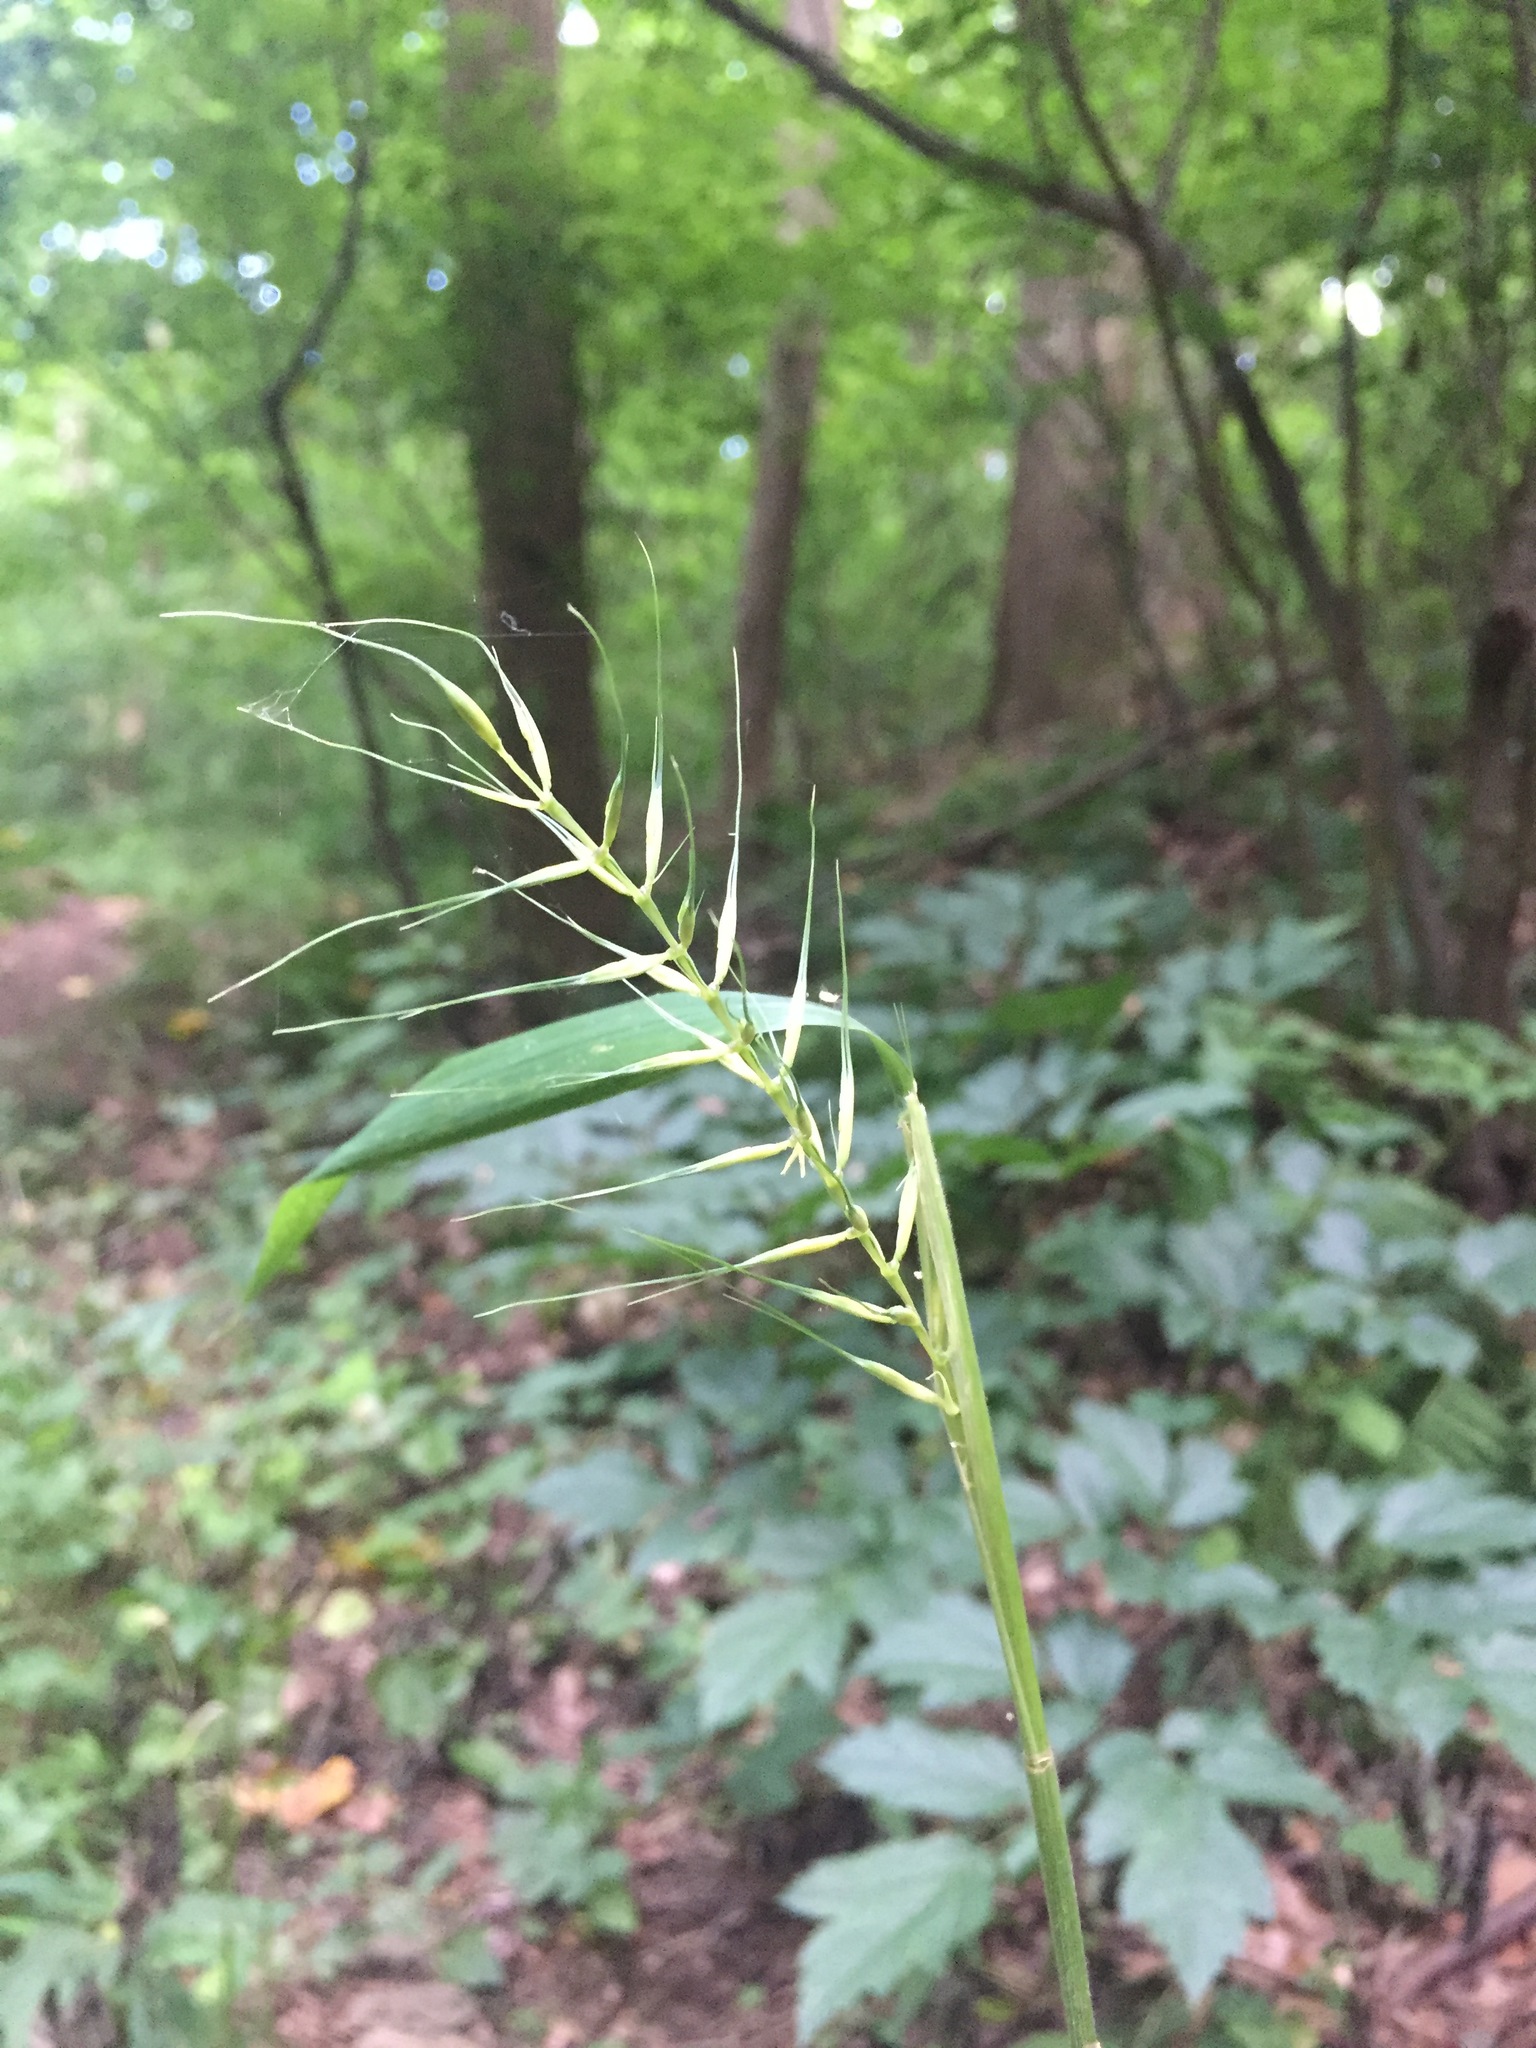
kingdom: Plantae
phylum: Tracheophyta
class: Liliopsida
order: Poales
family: Poaceae
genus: Elymus
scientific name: Elymus hystrix
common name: Bottlebrush grass
